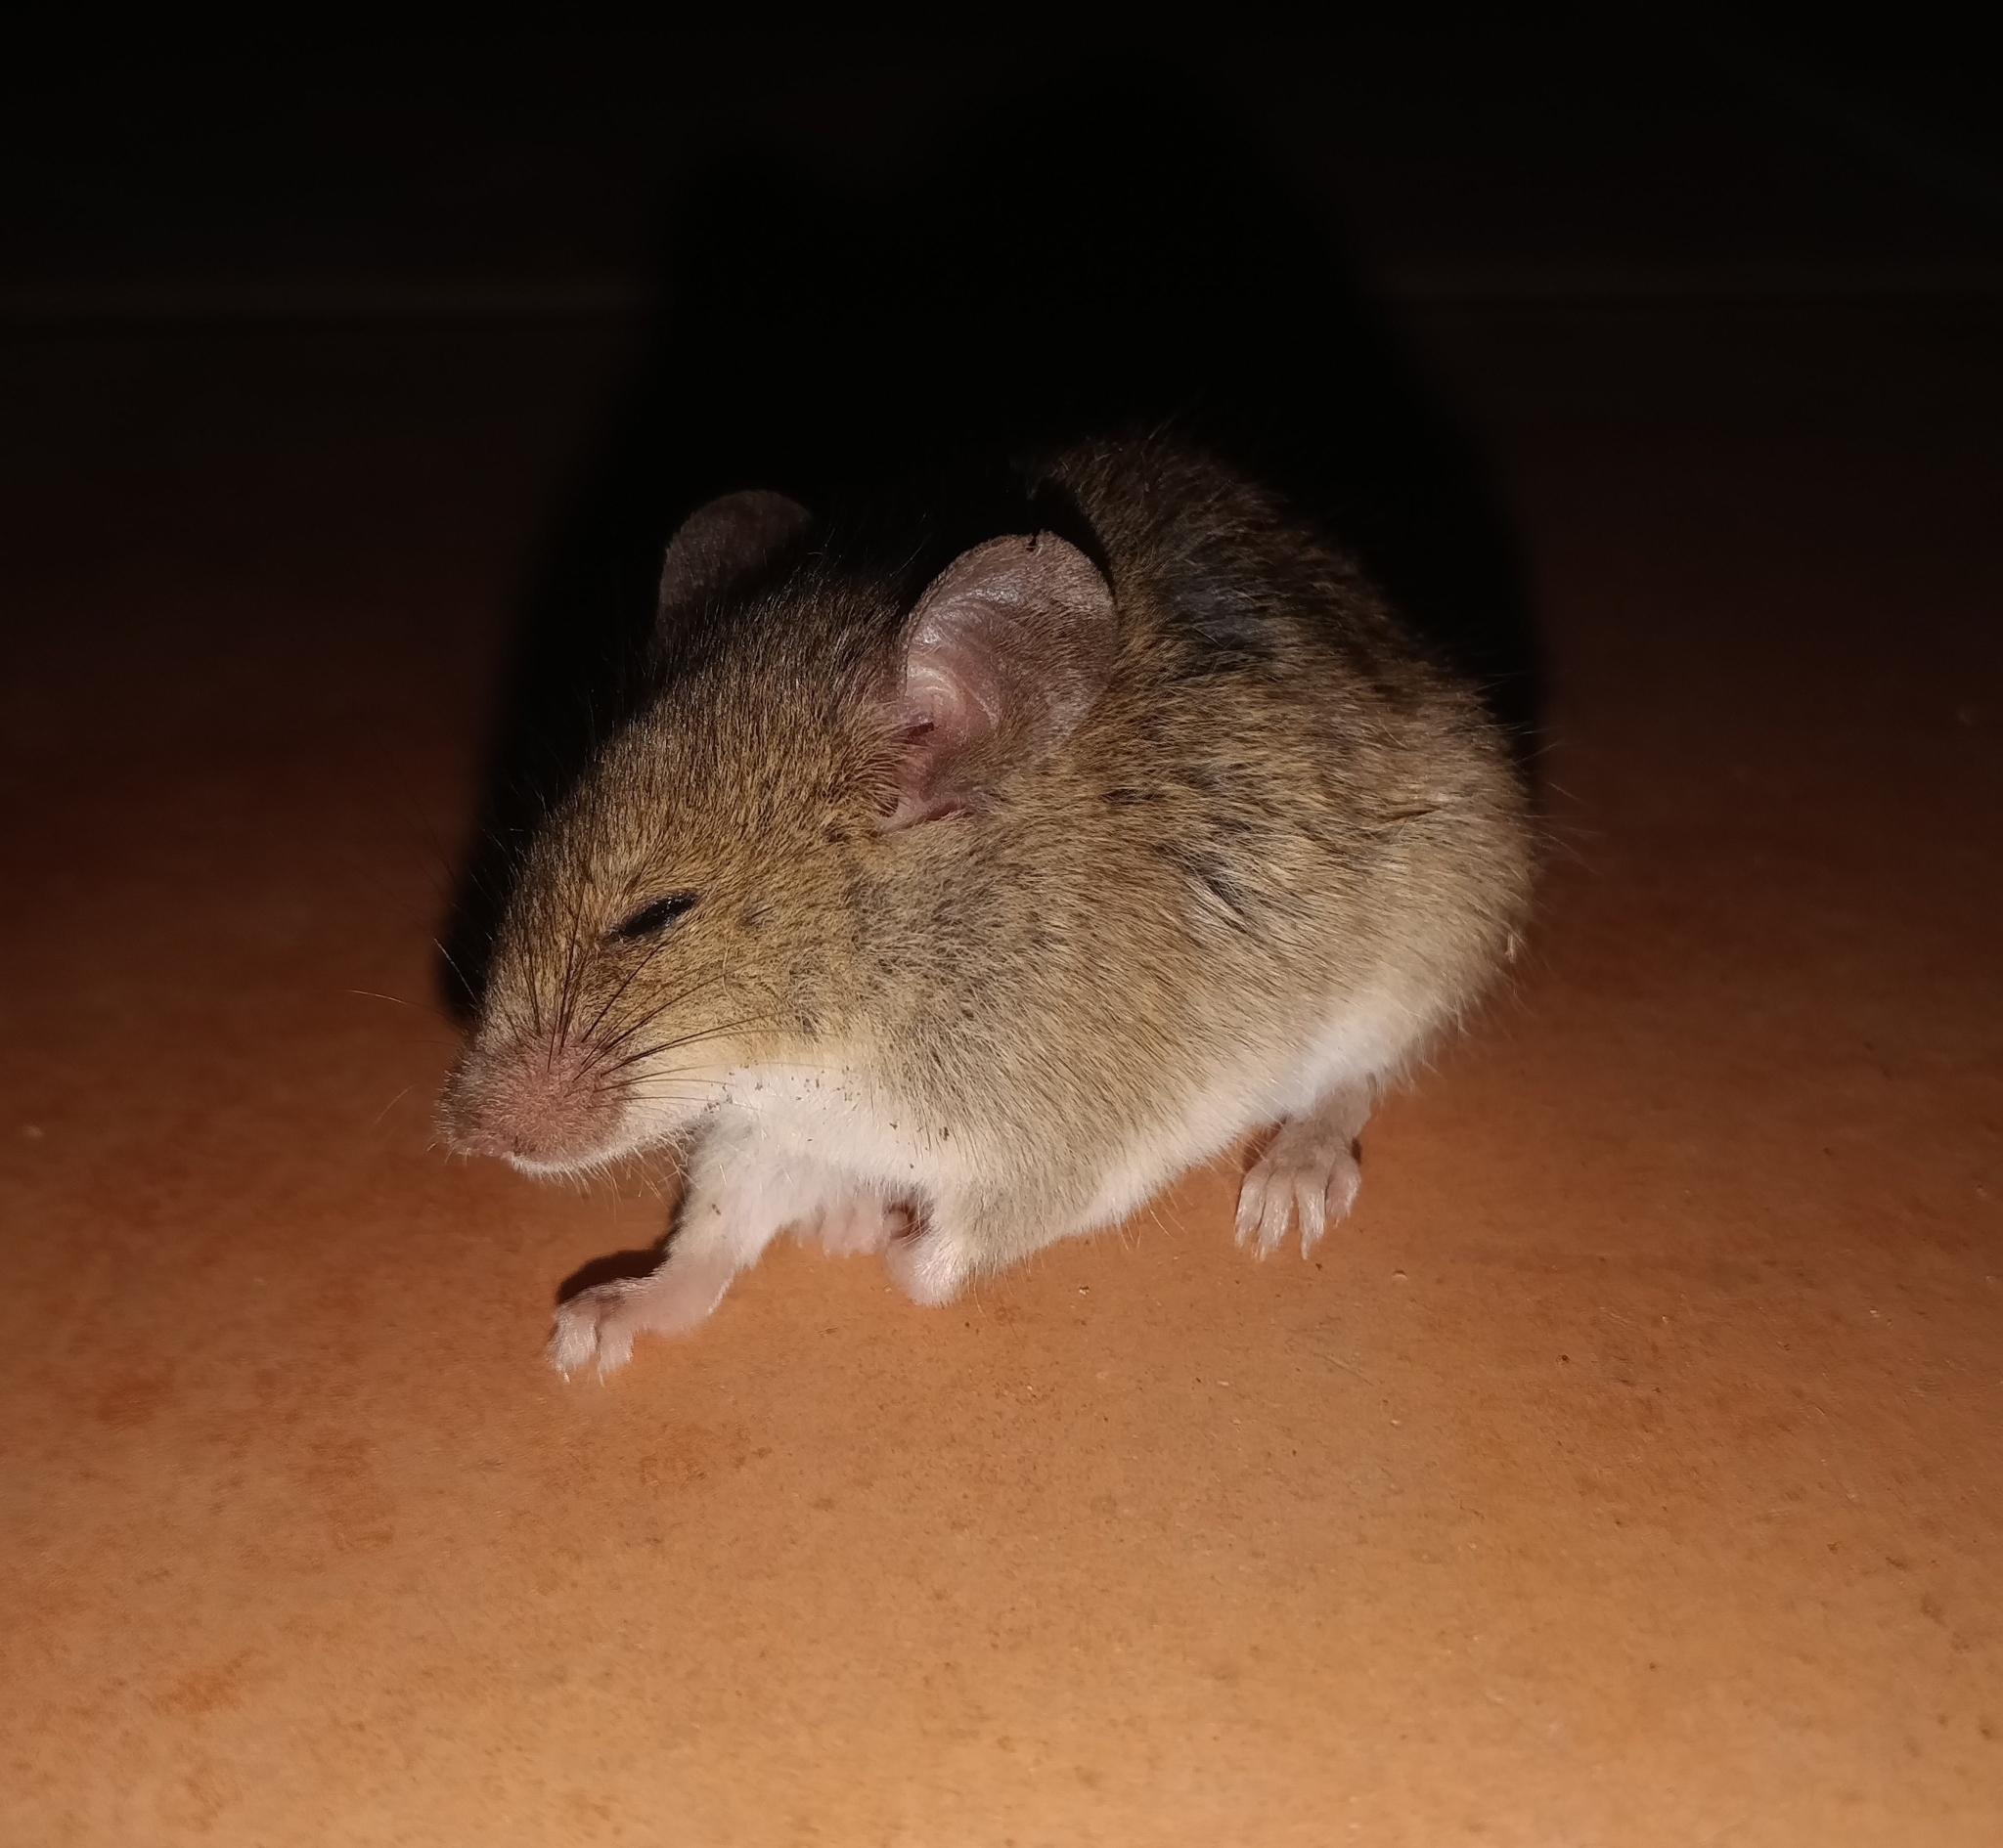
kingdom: Animalia
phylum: Chordata
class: Mammalia
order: Rodentia
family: Muridae
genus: Mus
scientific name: Mus musculus
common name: House mouse
